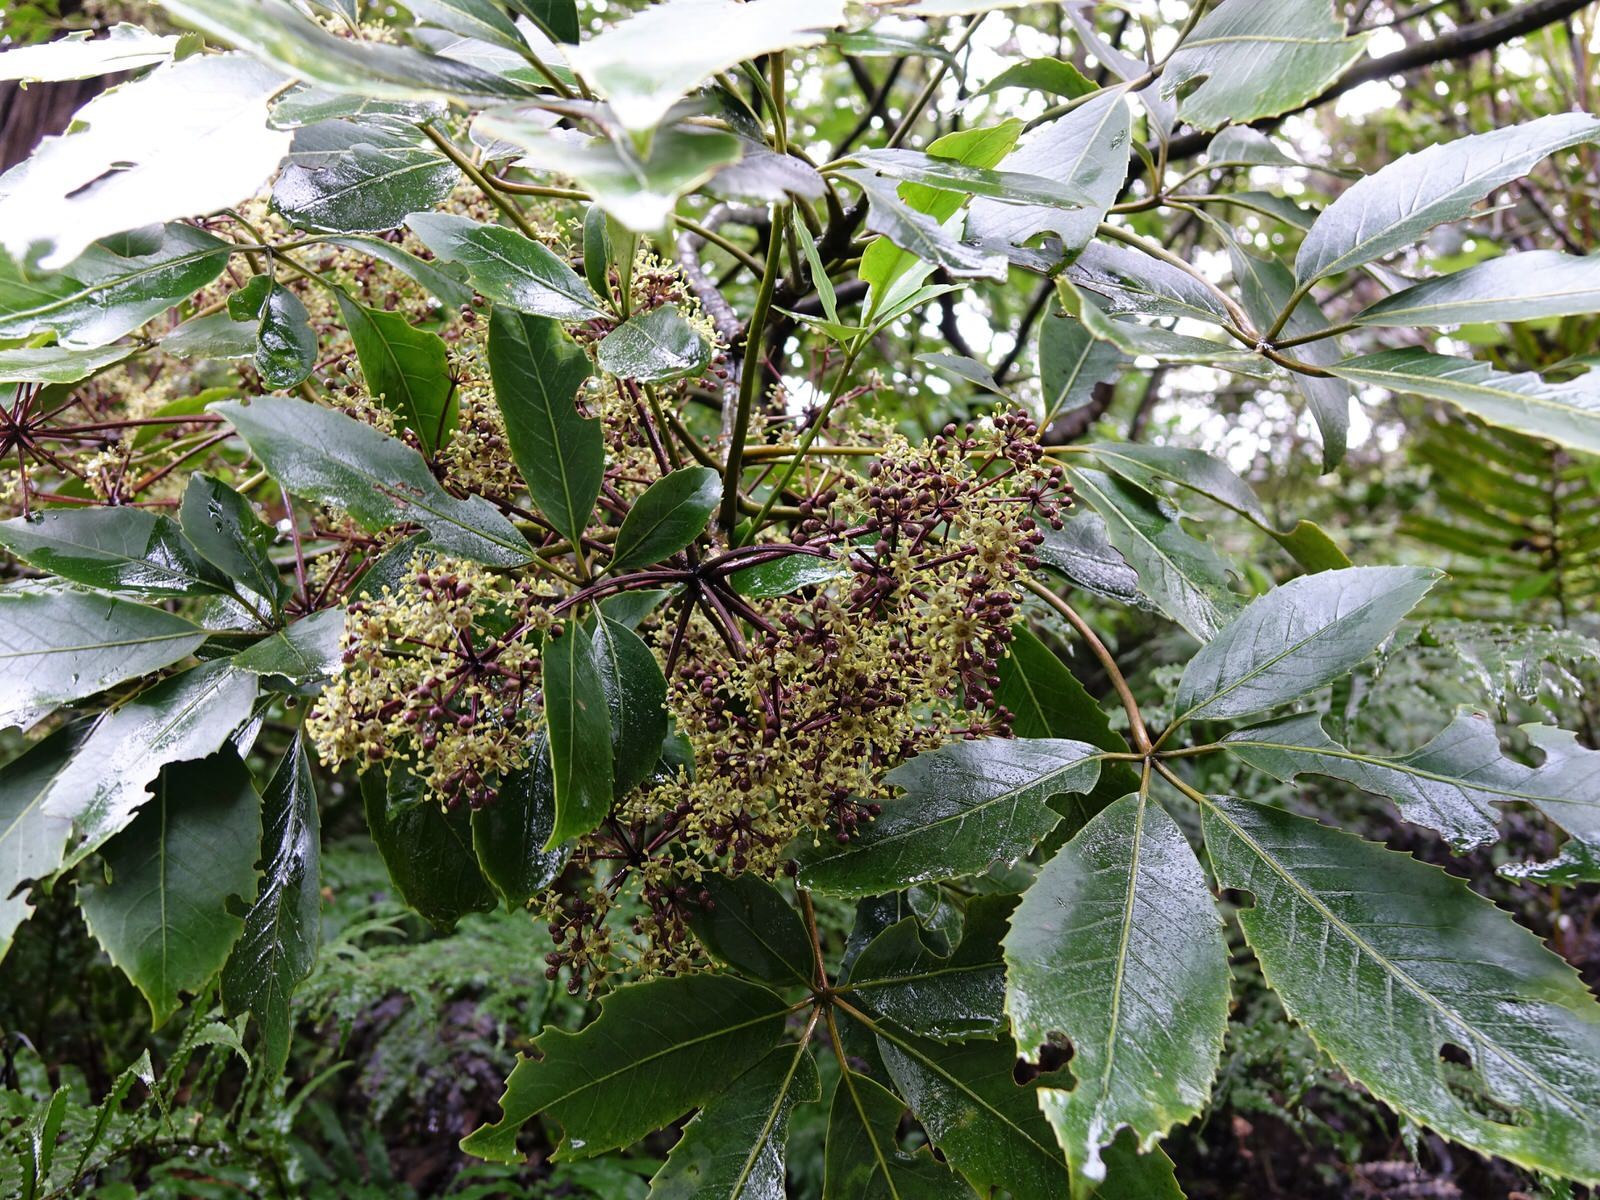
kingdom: Plantae
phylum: Tracheophyta
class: Magnoliopsida
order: Apiales
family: Araliaceae
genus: Neopanax
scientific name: Neopanax arboreus
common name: Five-fingers
